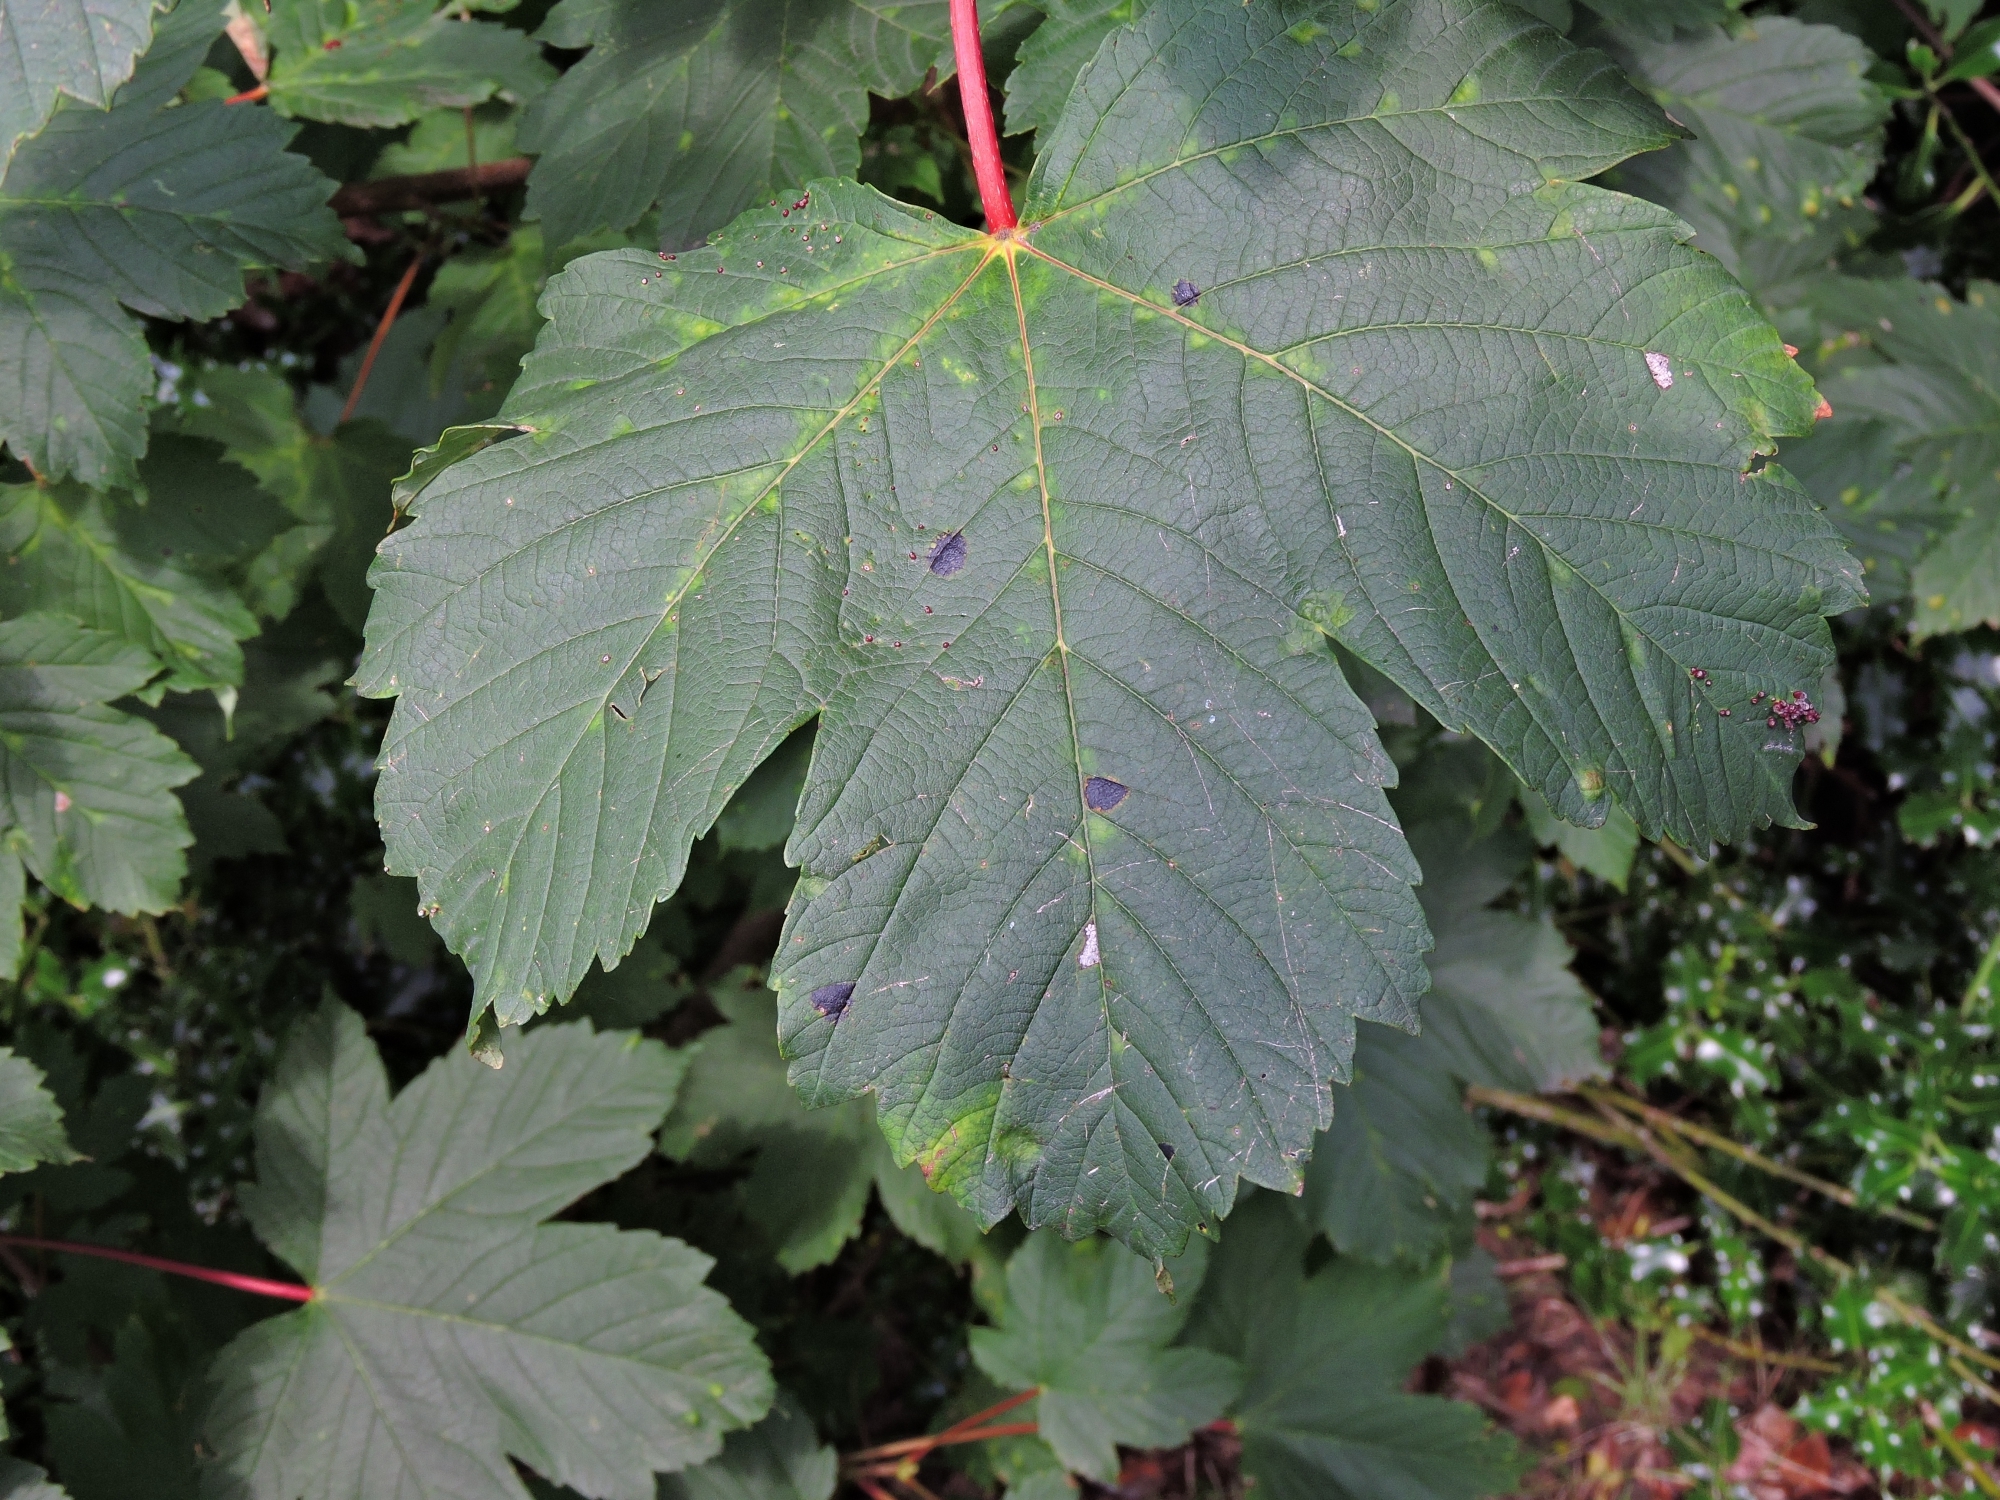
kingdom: Fungi
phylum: Ascomycota
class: Leotiomycetes
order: Rhytismatales
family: Rhytismataceae
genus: Rhytisma
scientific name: Rhytisma acerinum
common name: European tar spot
